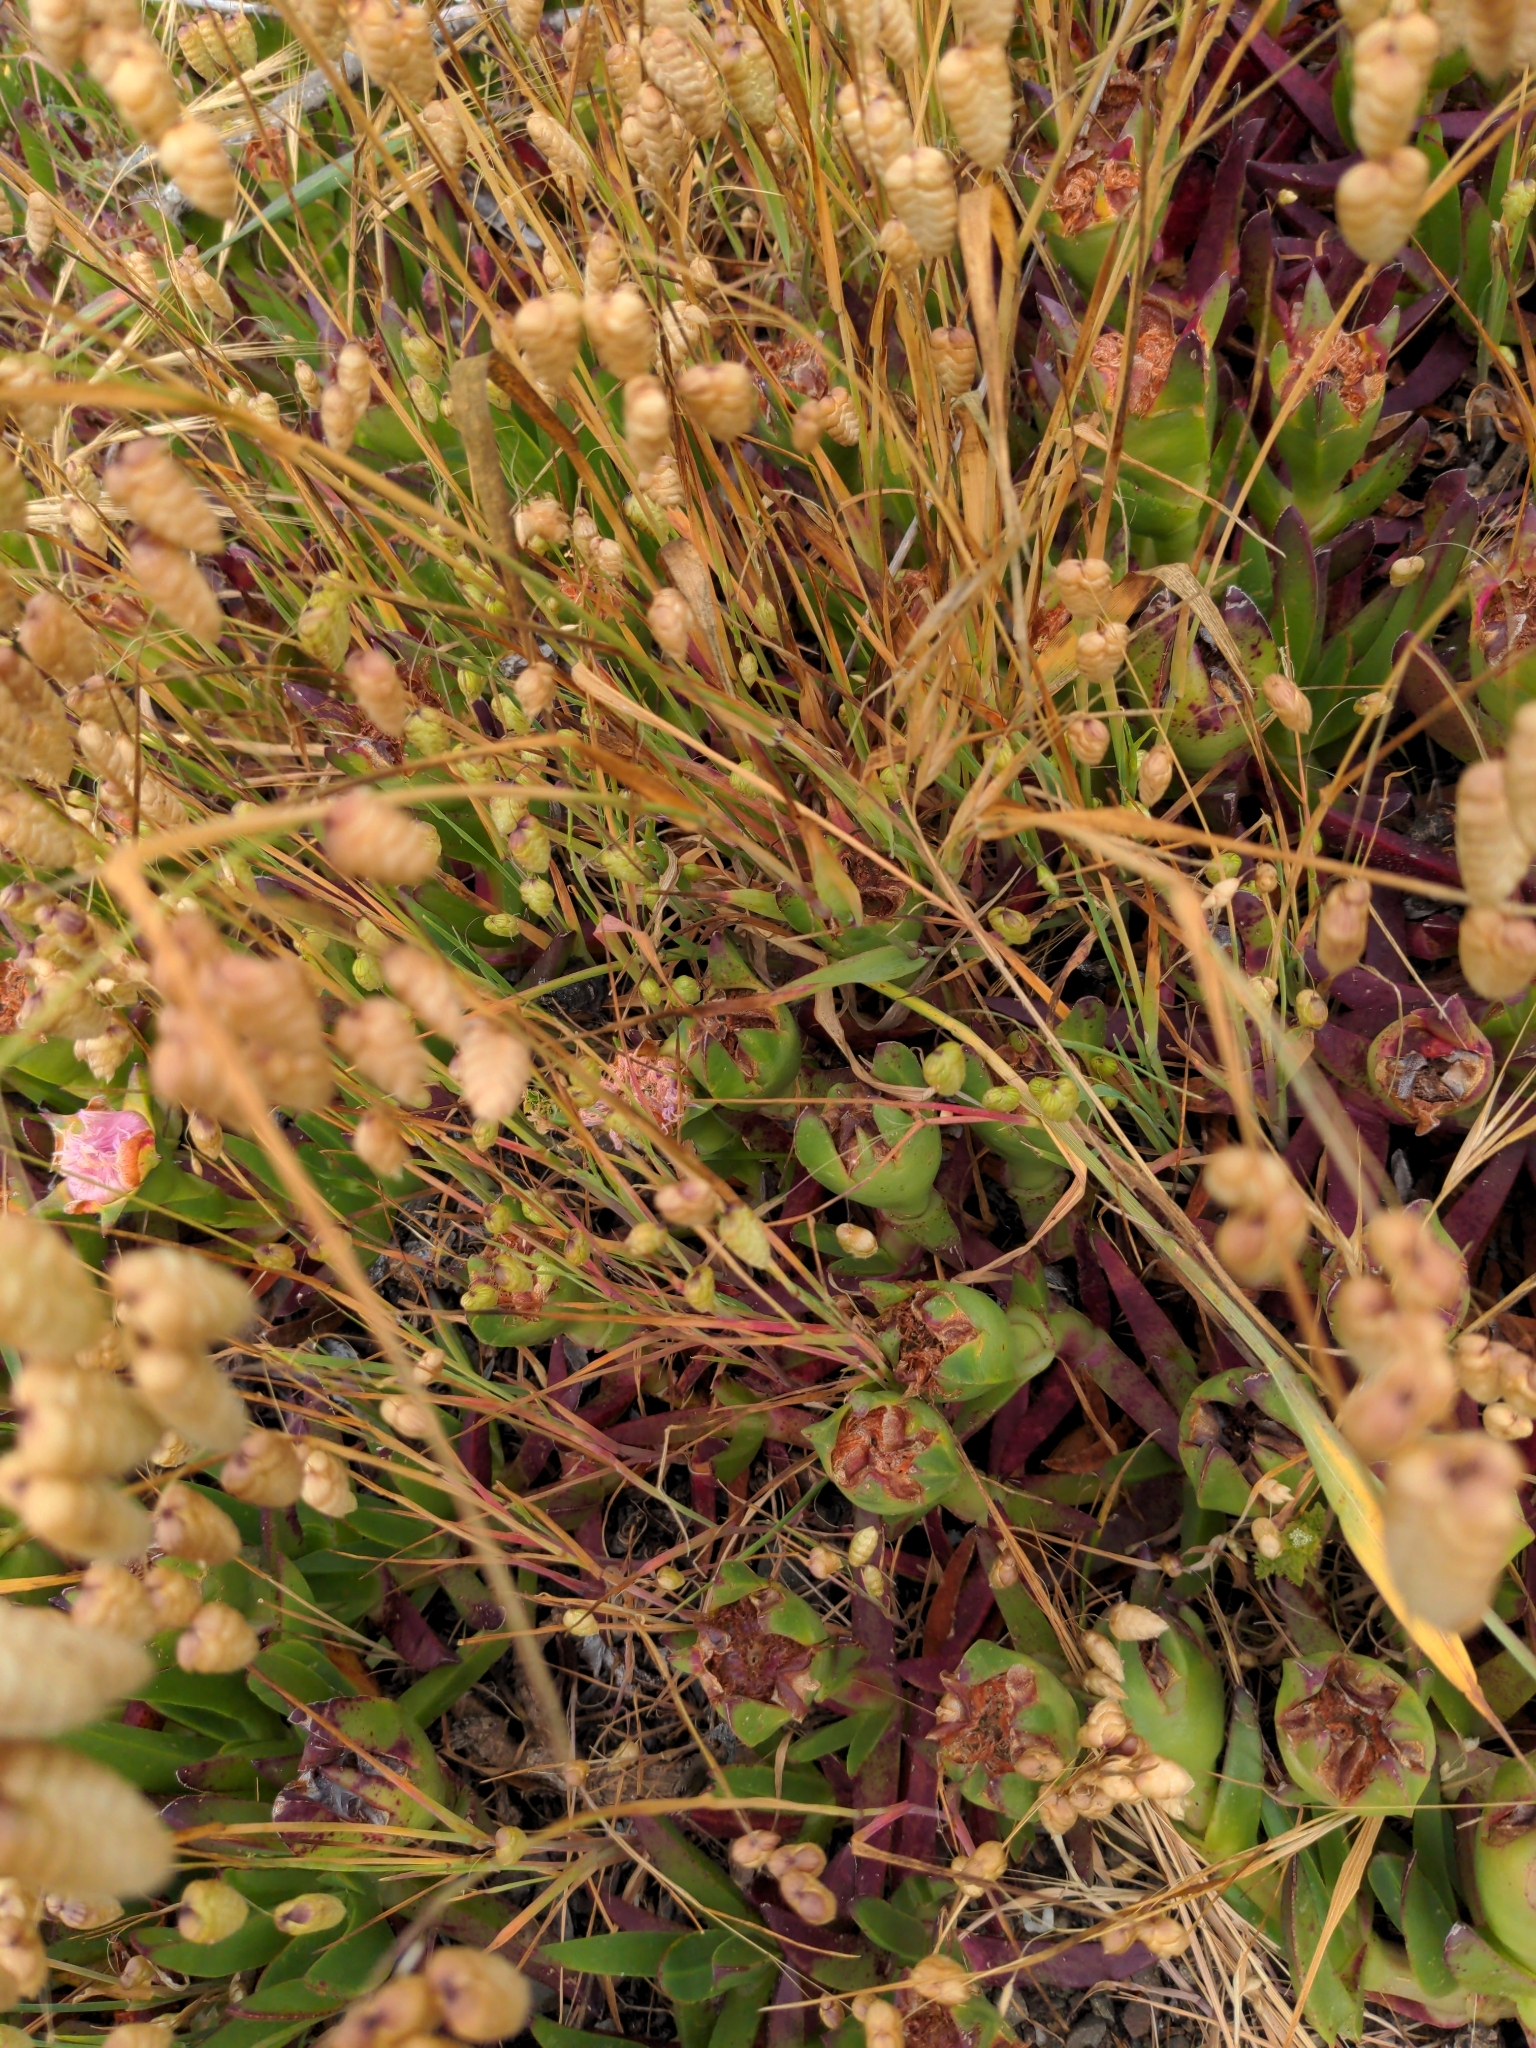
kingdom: Plantae
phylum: Tracheophyta
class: Liliopsida
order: Poales
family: Poaceae
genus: Briza
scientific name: Briza maxima
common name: Big quakinggrass
